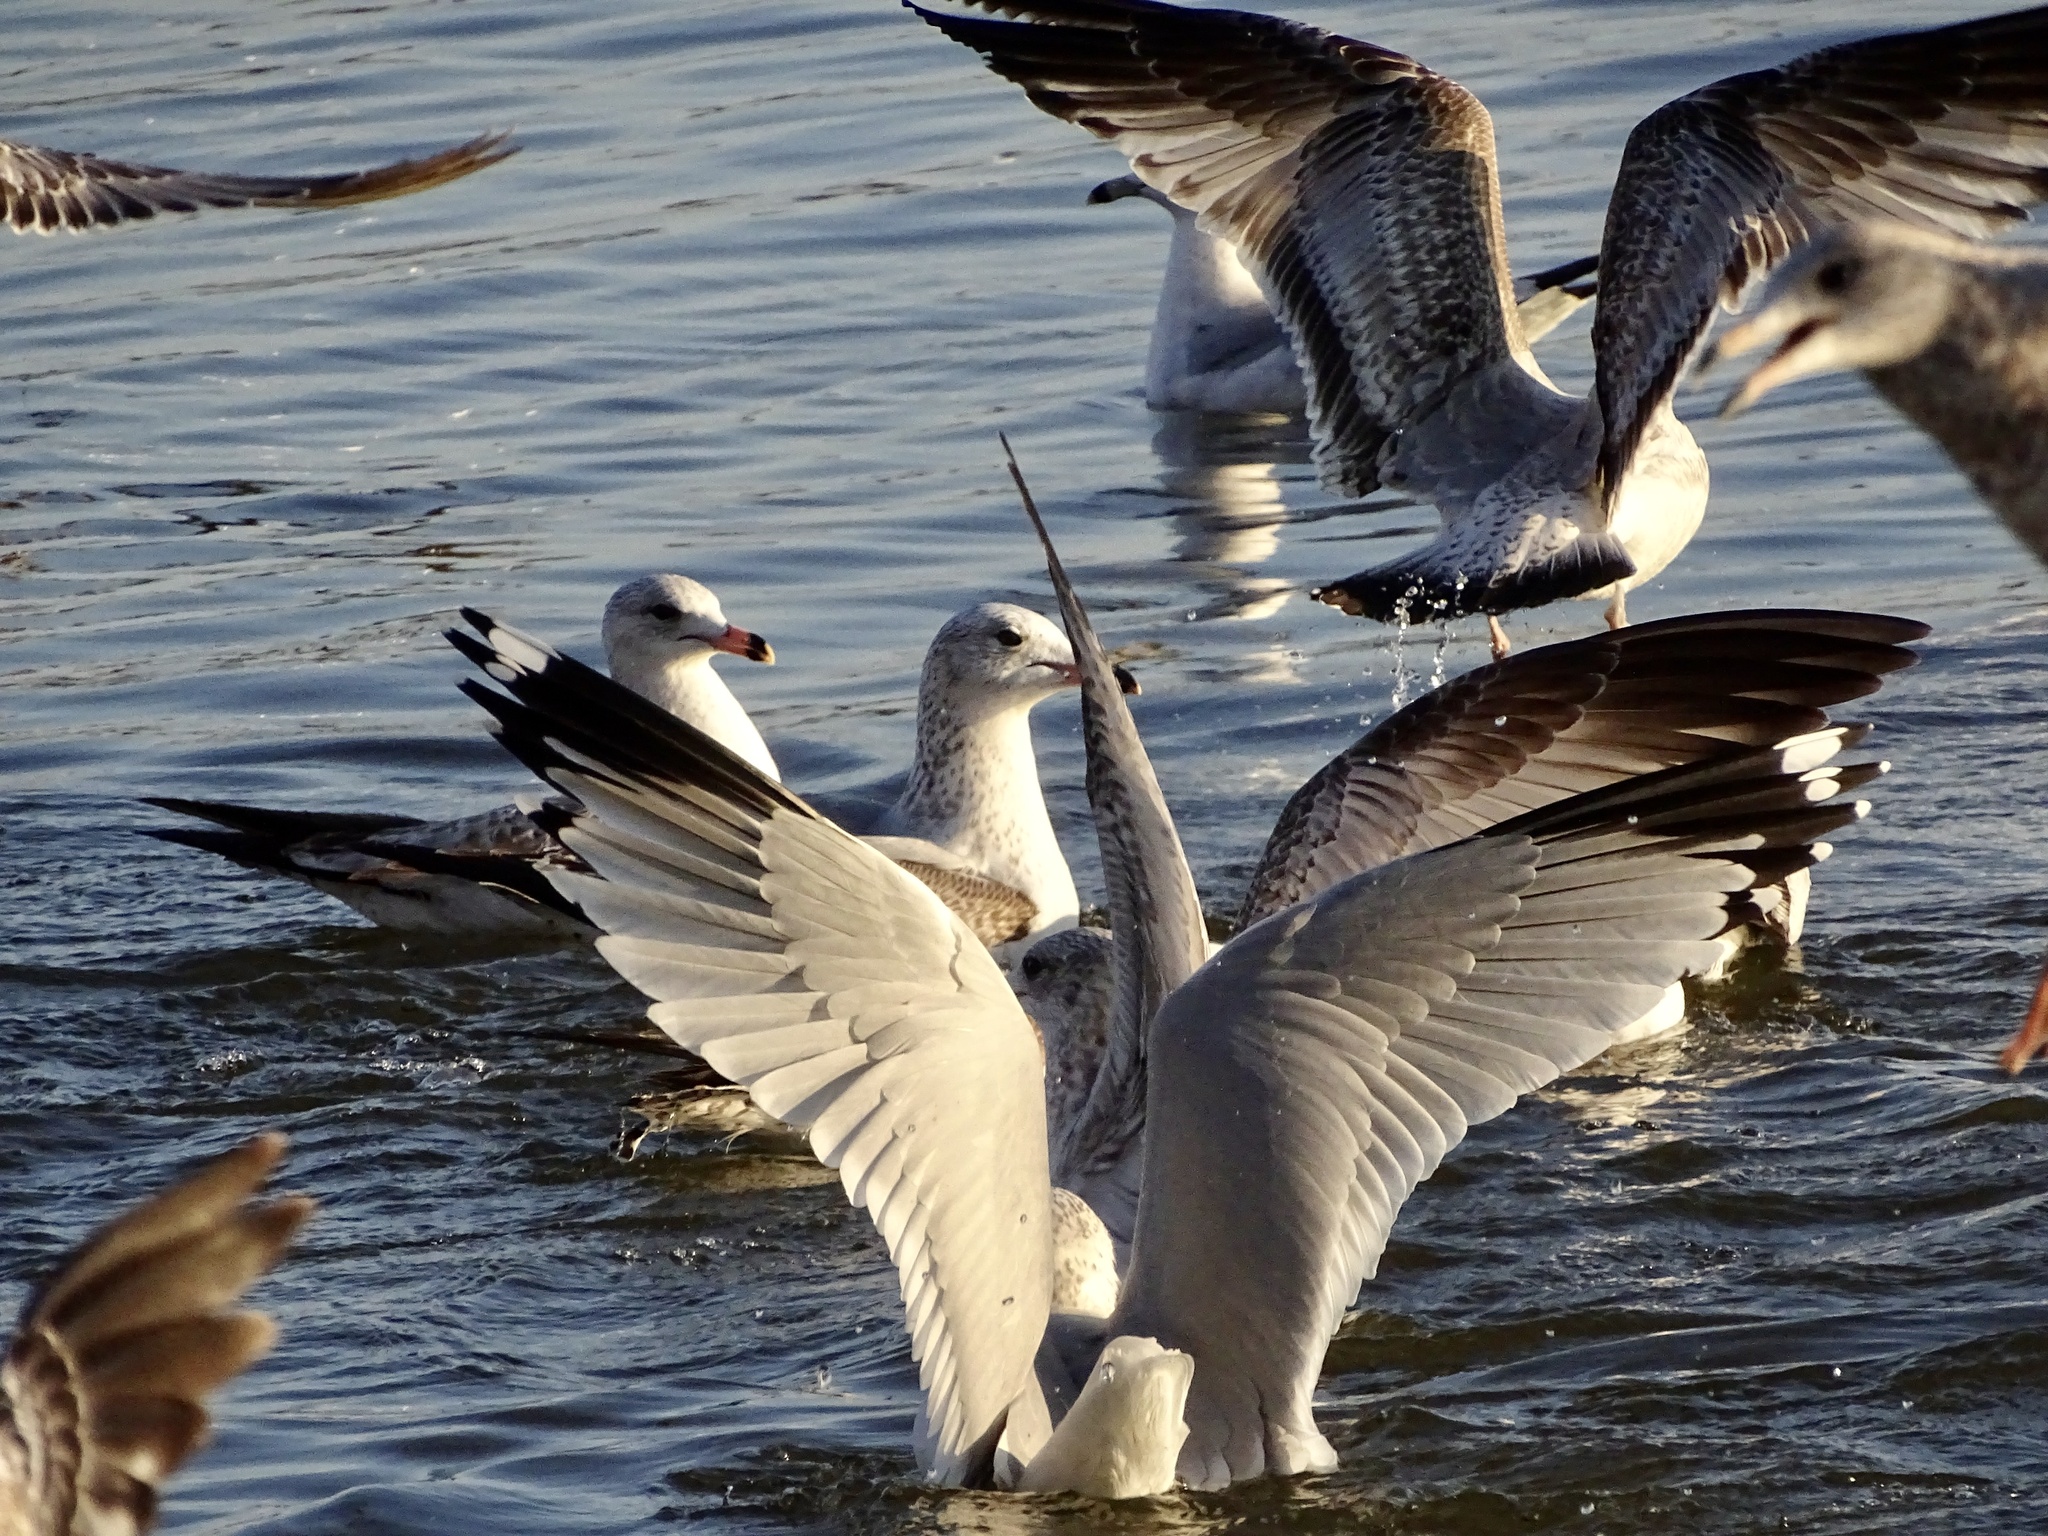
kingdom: Animalia
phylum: Chordata
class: Aves
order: Charadriiformes
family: Laridae
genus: Larus
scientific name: Larus delawarensis
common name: Ring-billed gull
